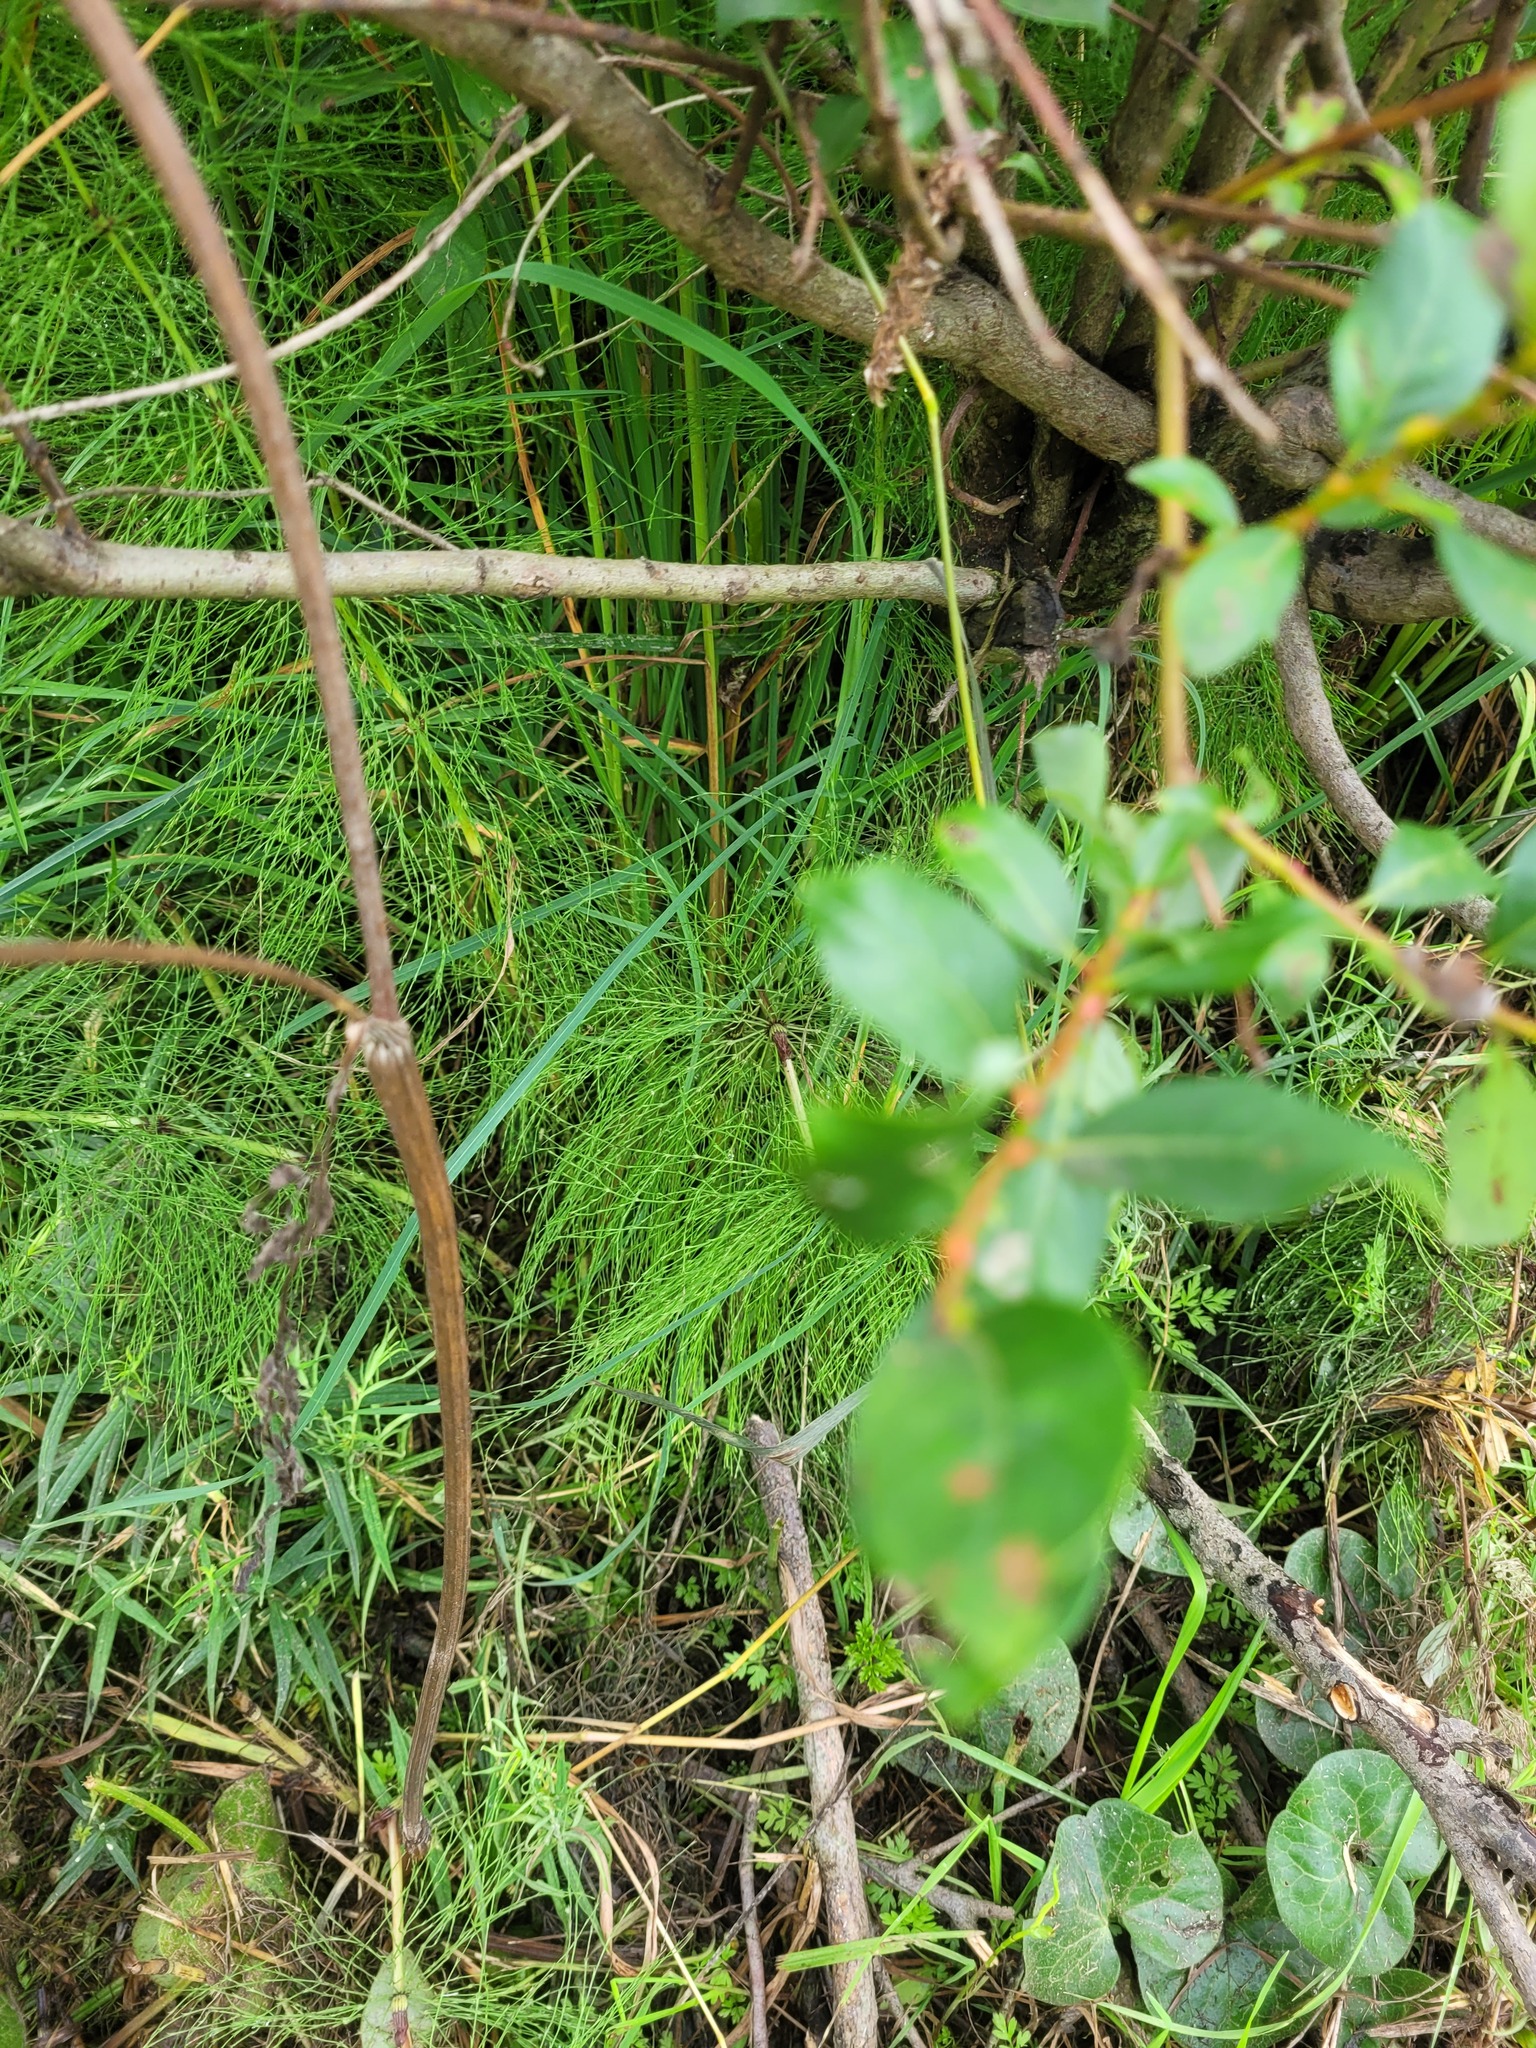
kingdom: Plantae
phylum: Tracheophyta
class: Polypodiopsida
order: Equisetales
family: Equisetaceae
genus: Equisetum
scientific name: Equisetum sylvaticum
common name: Wood horsetail
